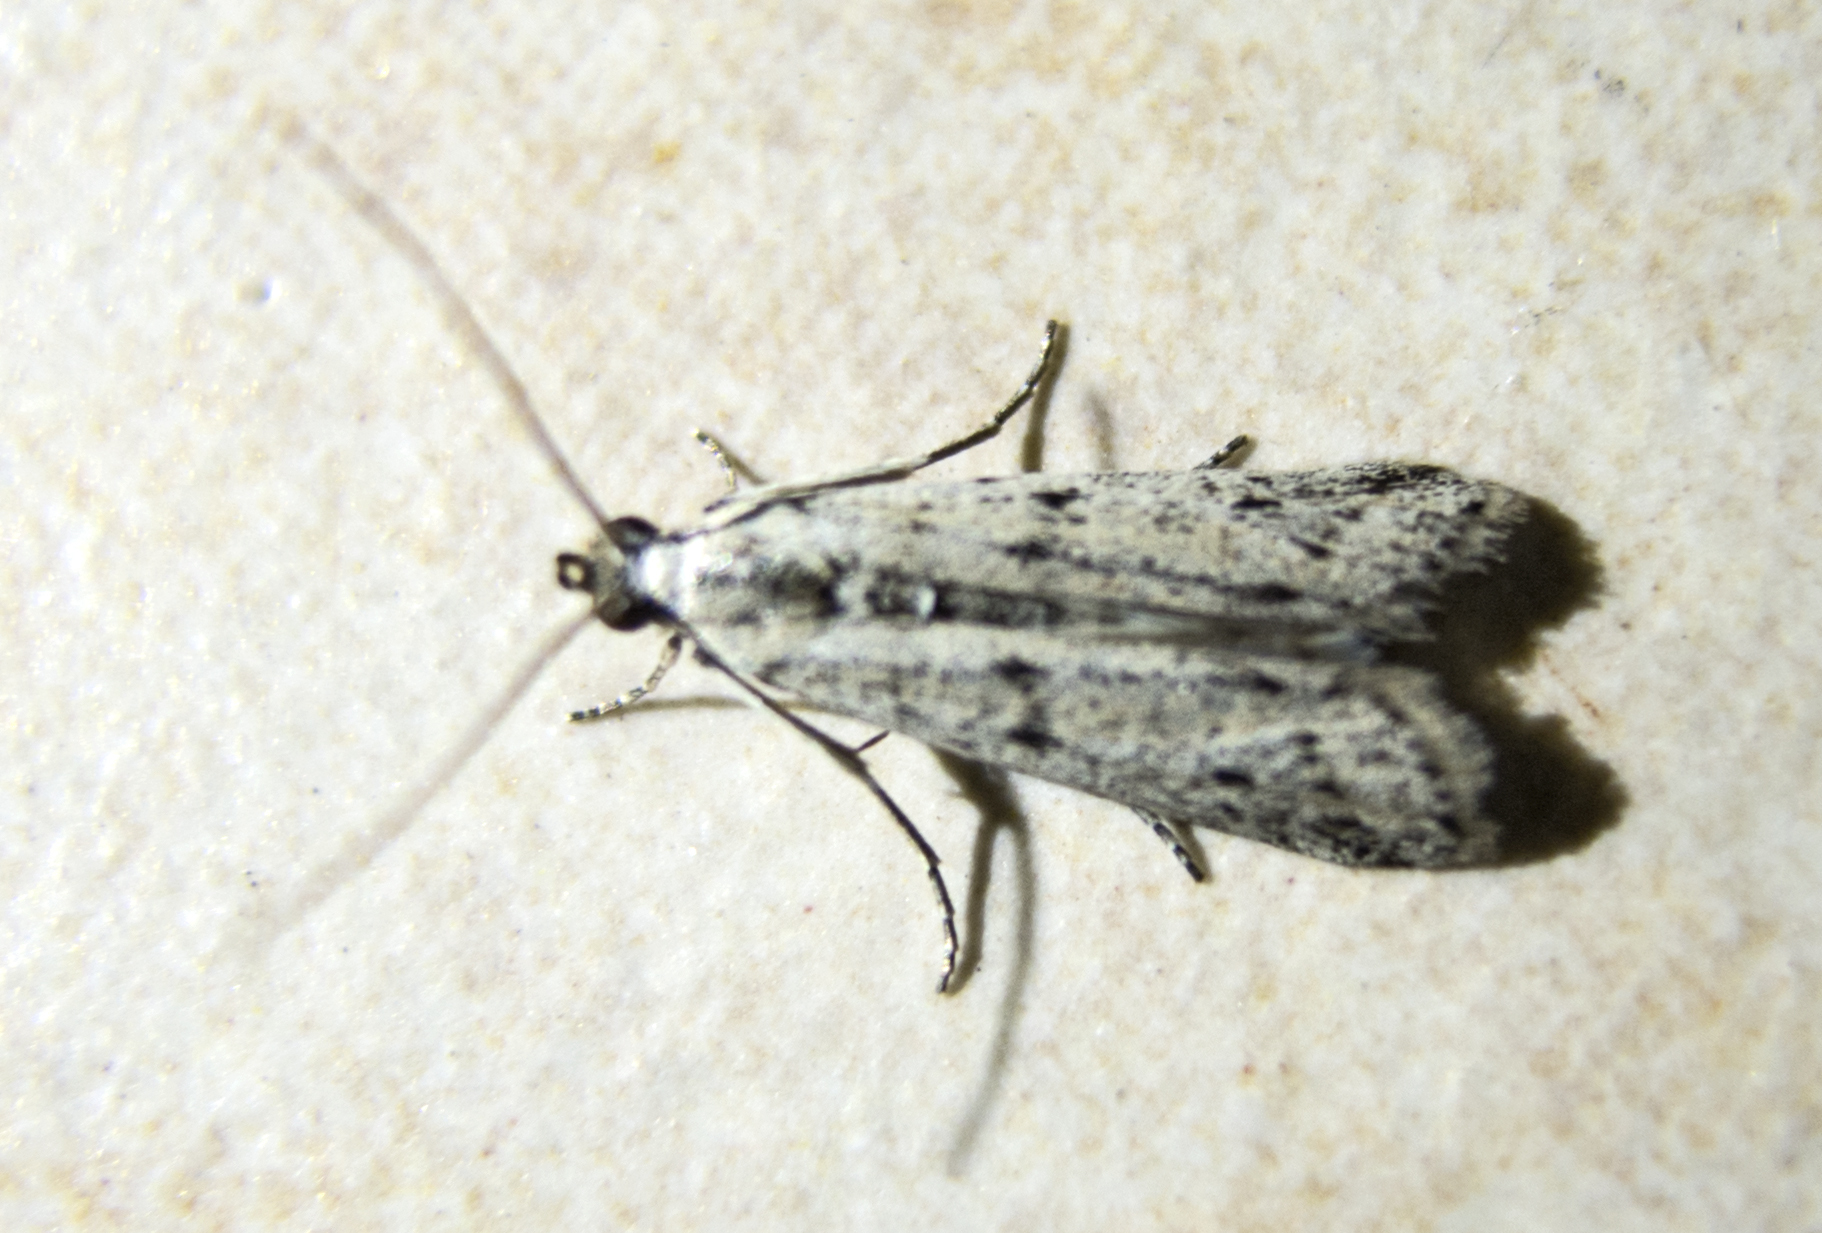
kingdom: Animalia
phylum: Arthropoda
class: Insecta
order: Lepidoptera
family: Pyralidae
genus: Phycitodes
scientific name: Phycitodes lacteella
